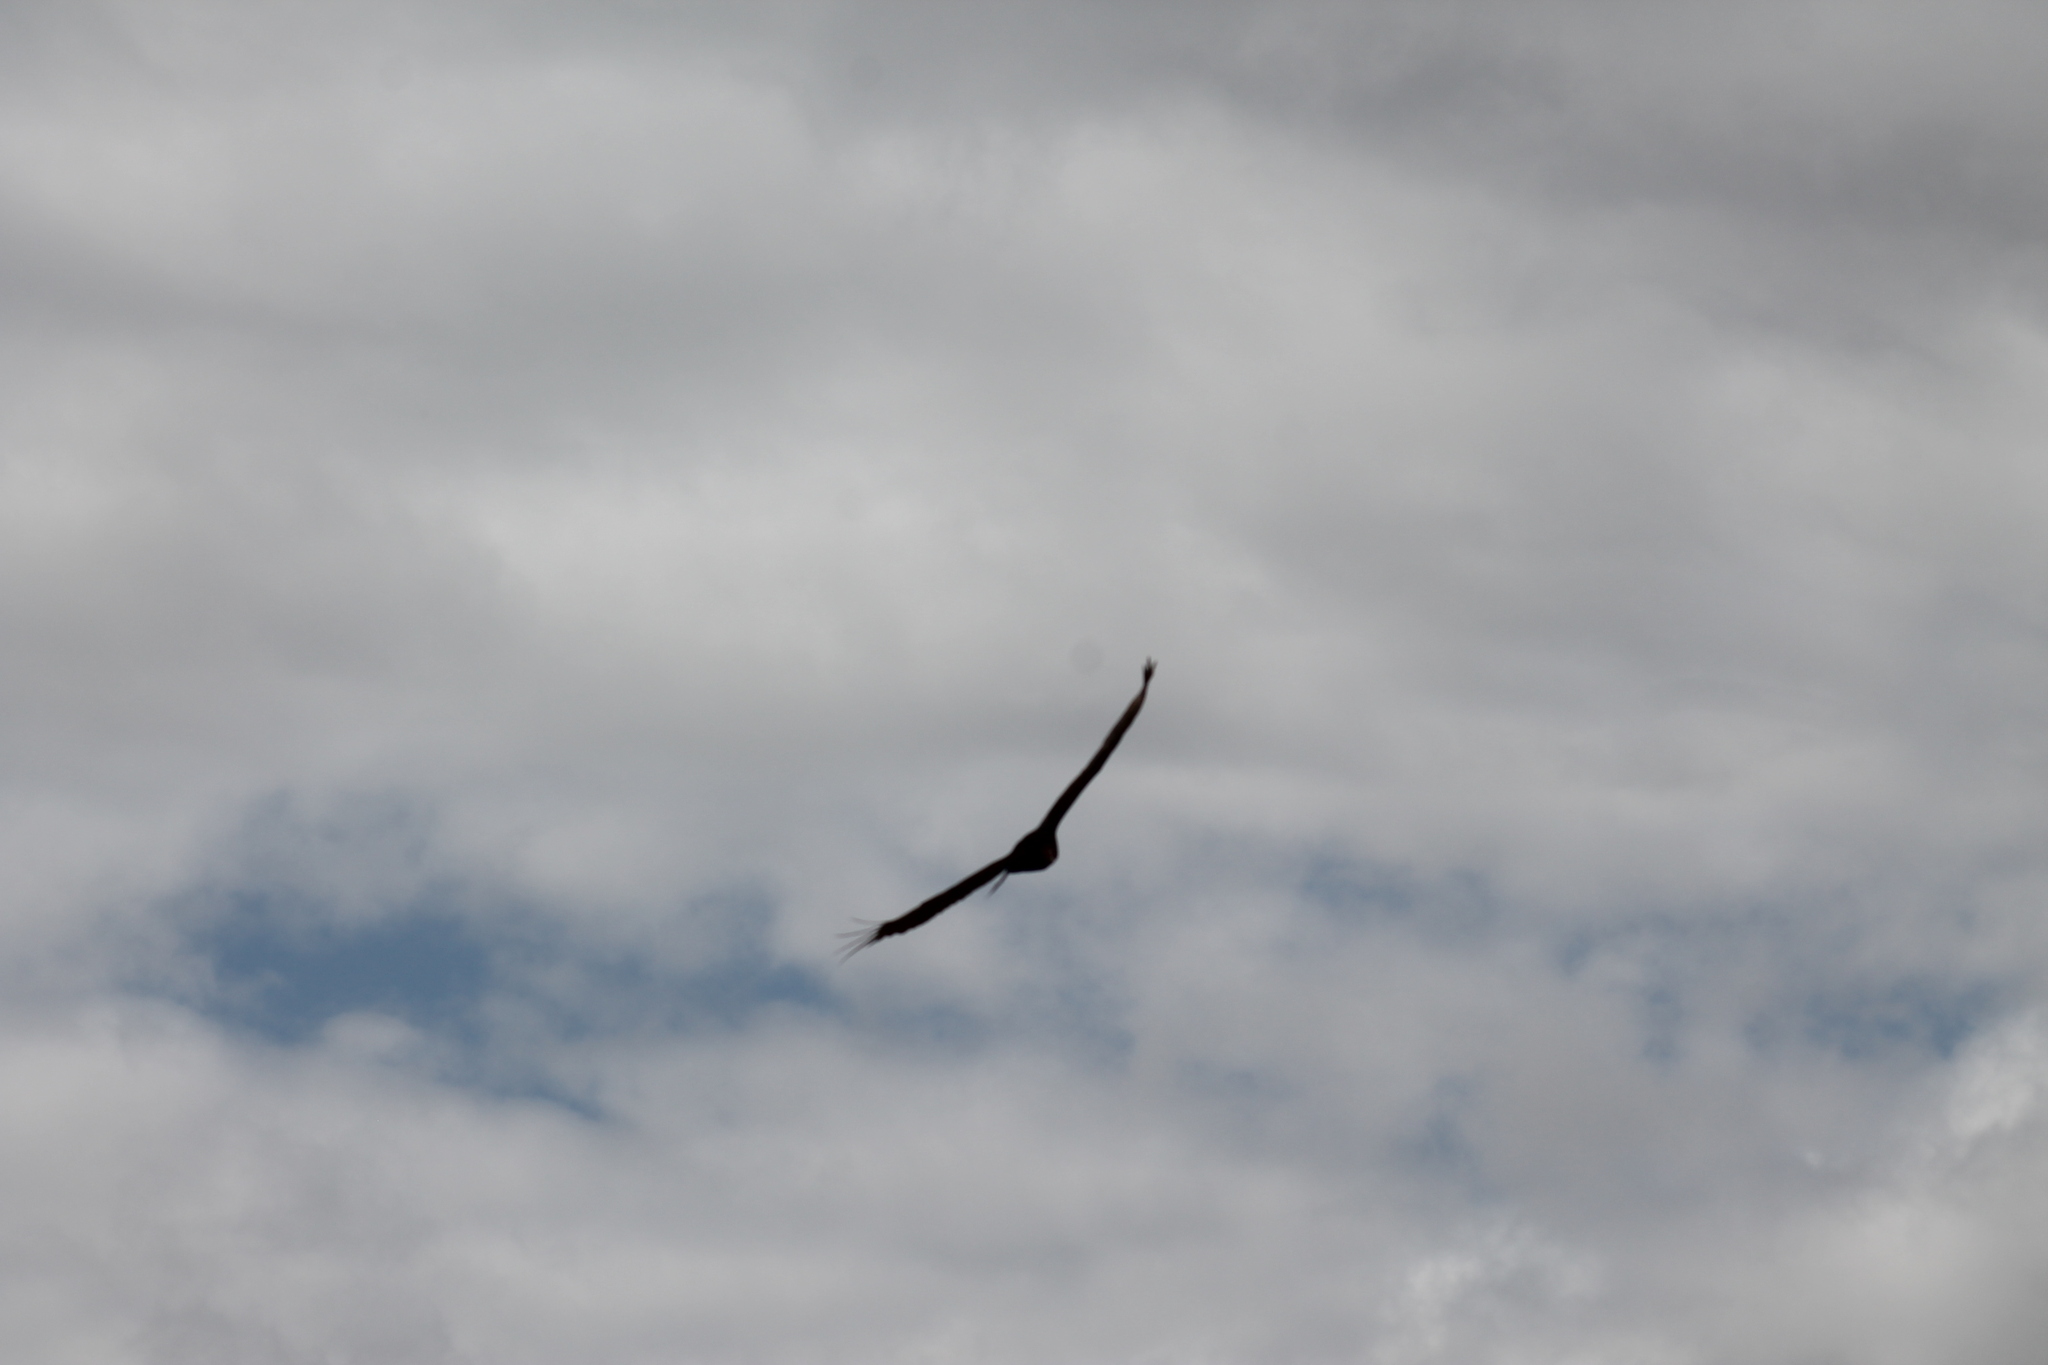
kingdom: Animalia
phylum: Chordata
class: Aves
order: Accipitriformes
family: Cathartidae
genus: Cathartes
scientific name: Cathartes aura
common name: Turkey vulture
